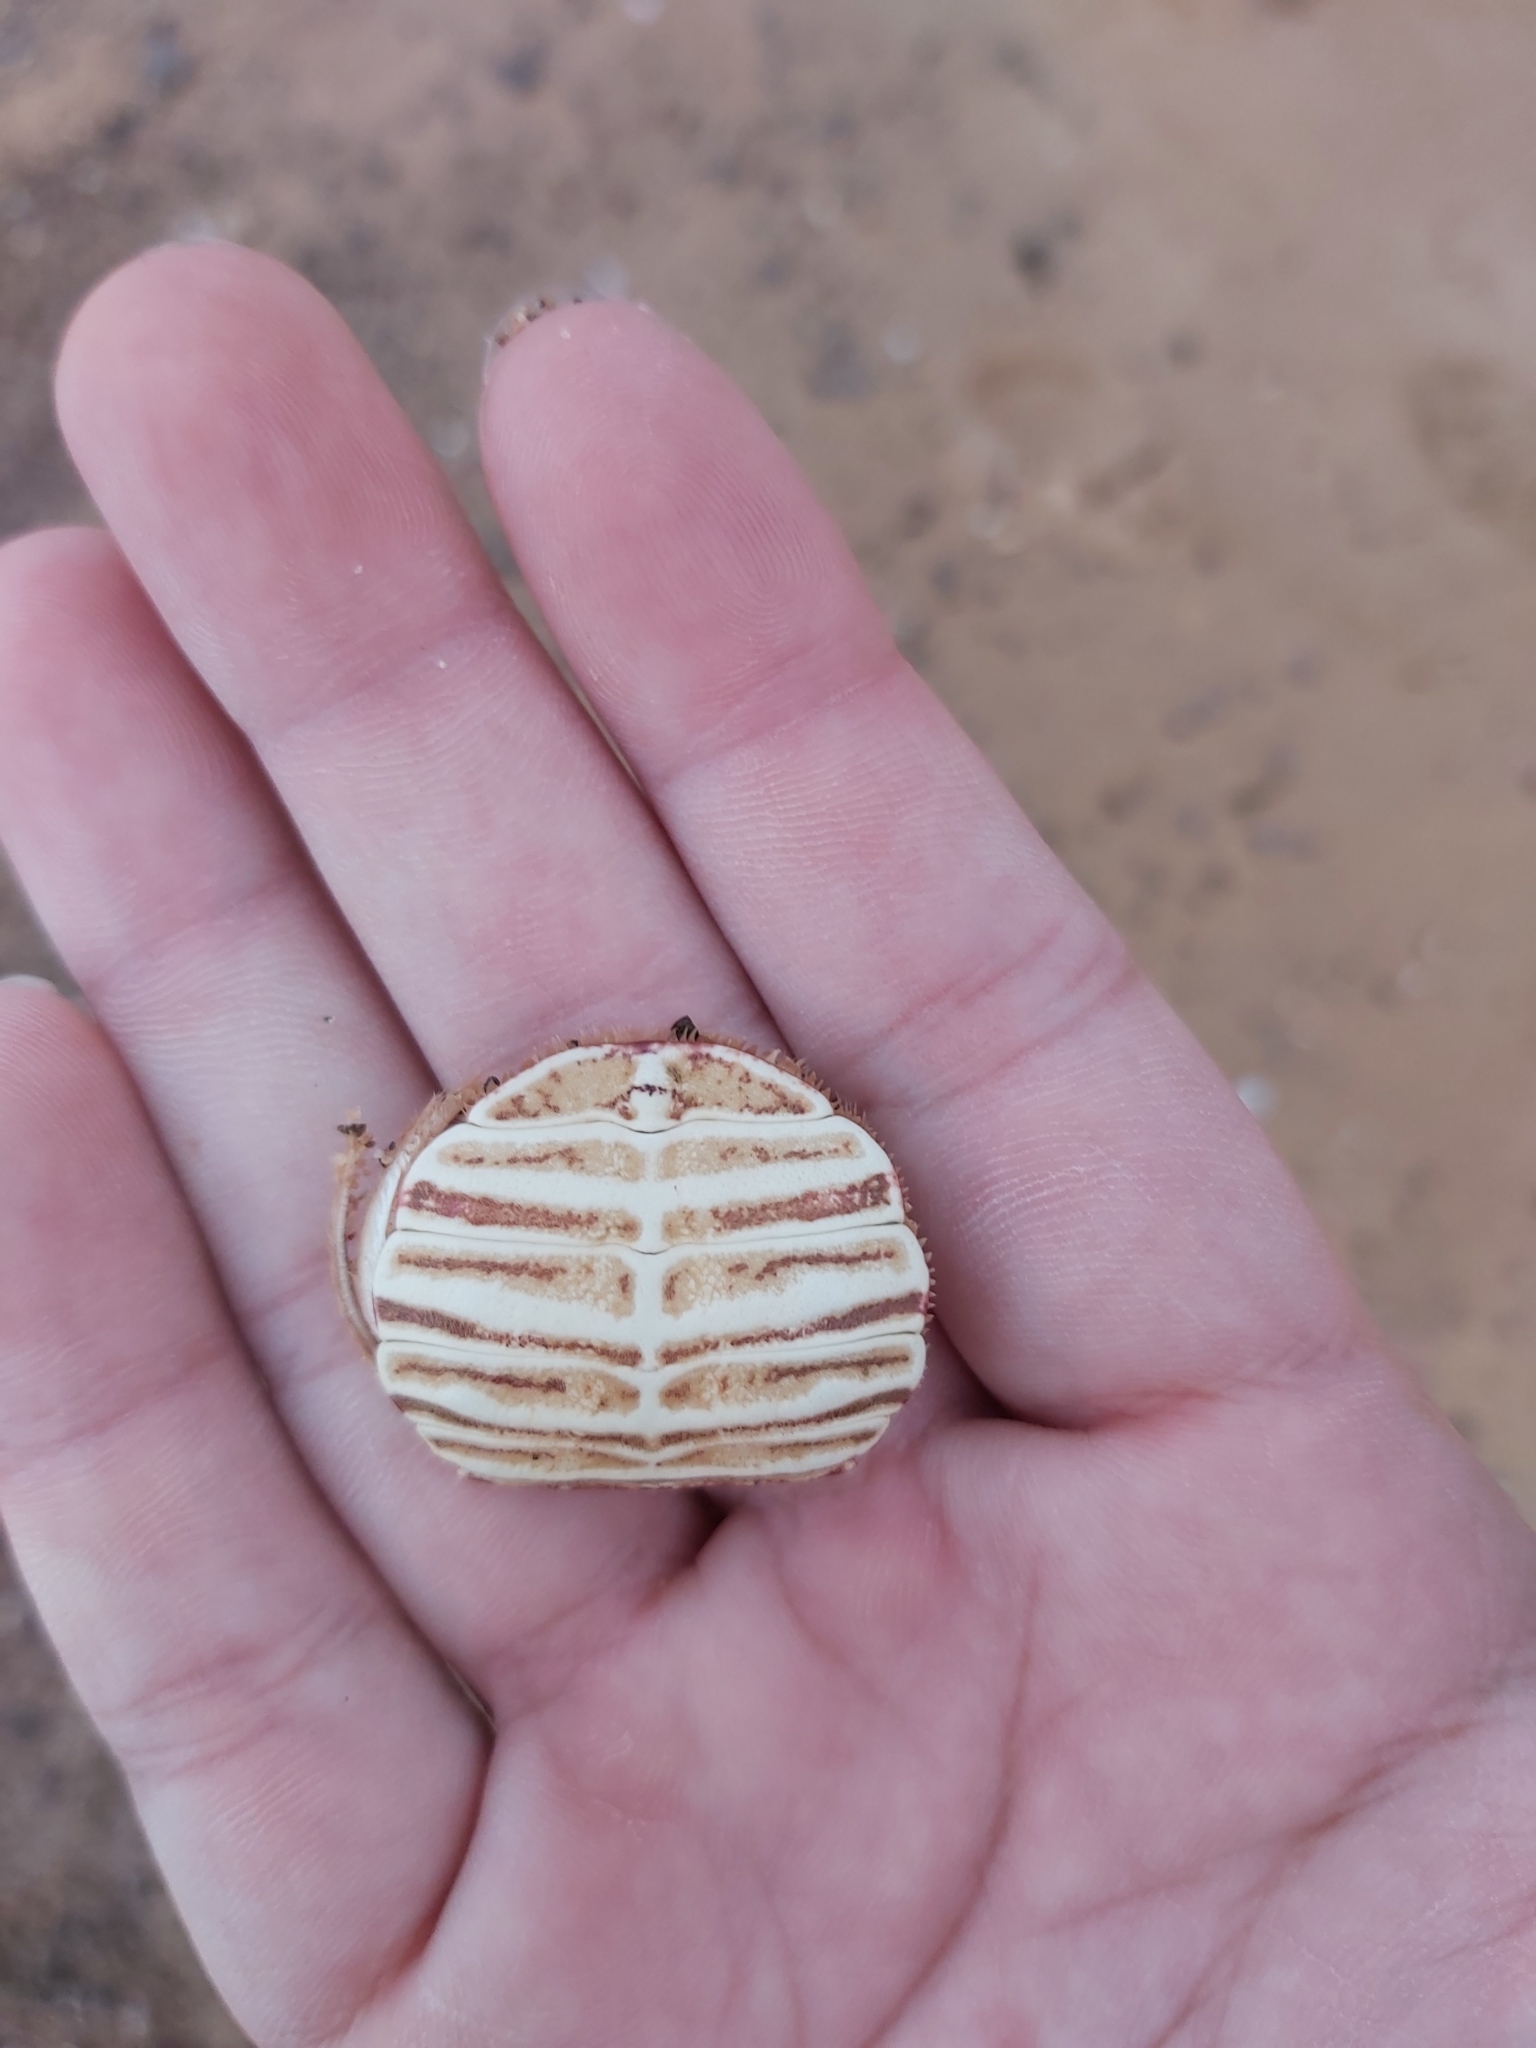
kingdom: Animalia
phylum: Arthropoda
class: Malacostraca
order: Decapoda
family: Plagusiidae
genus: Guinusia
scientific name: Guinusia chabrus
